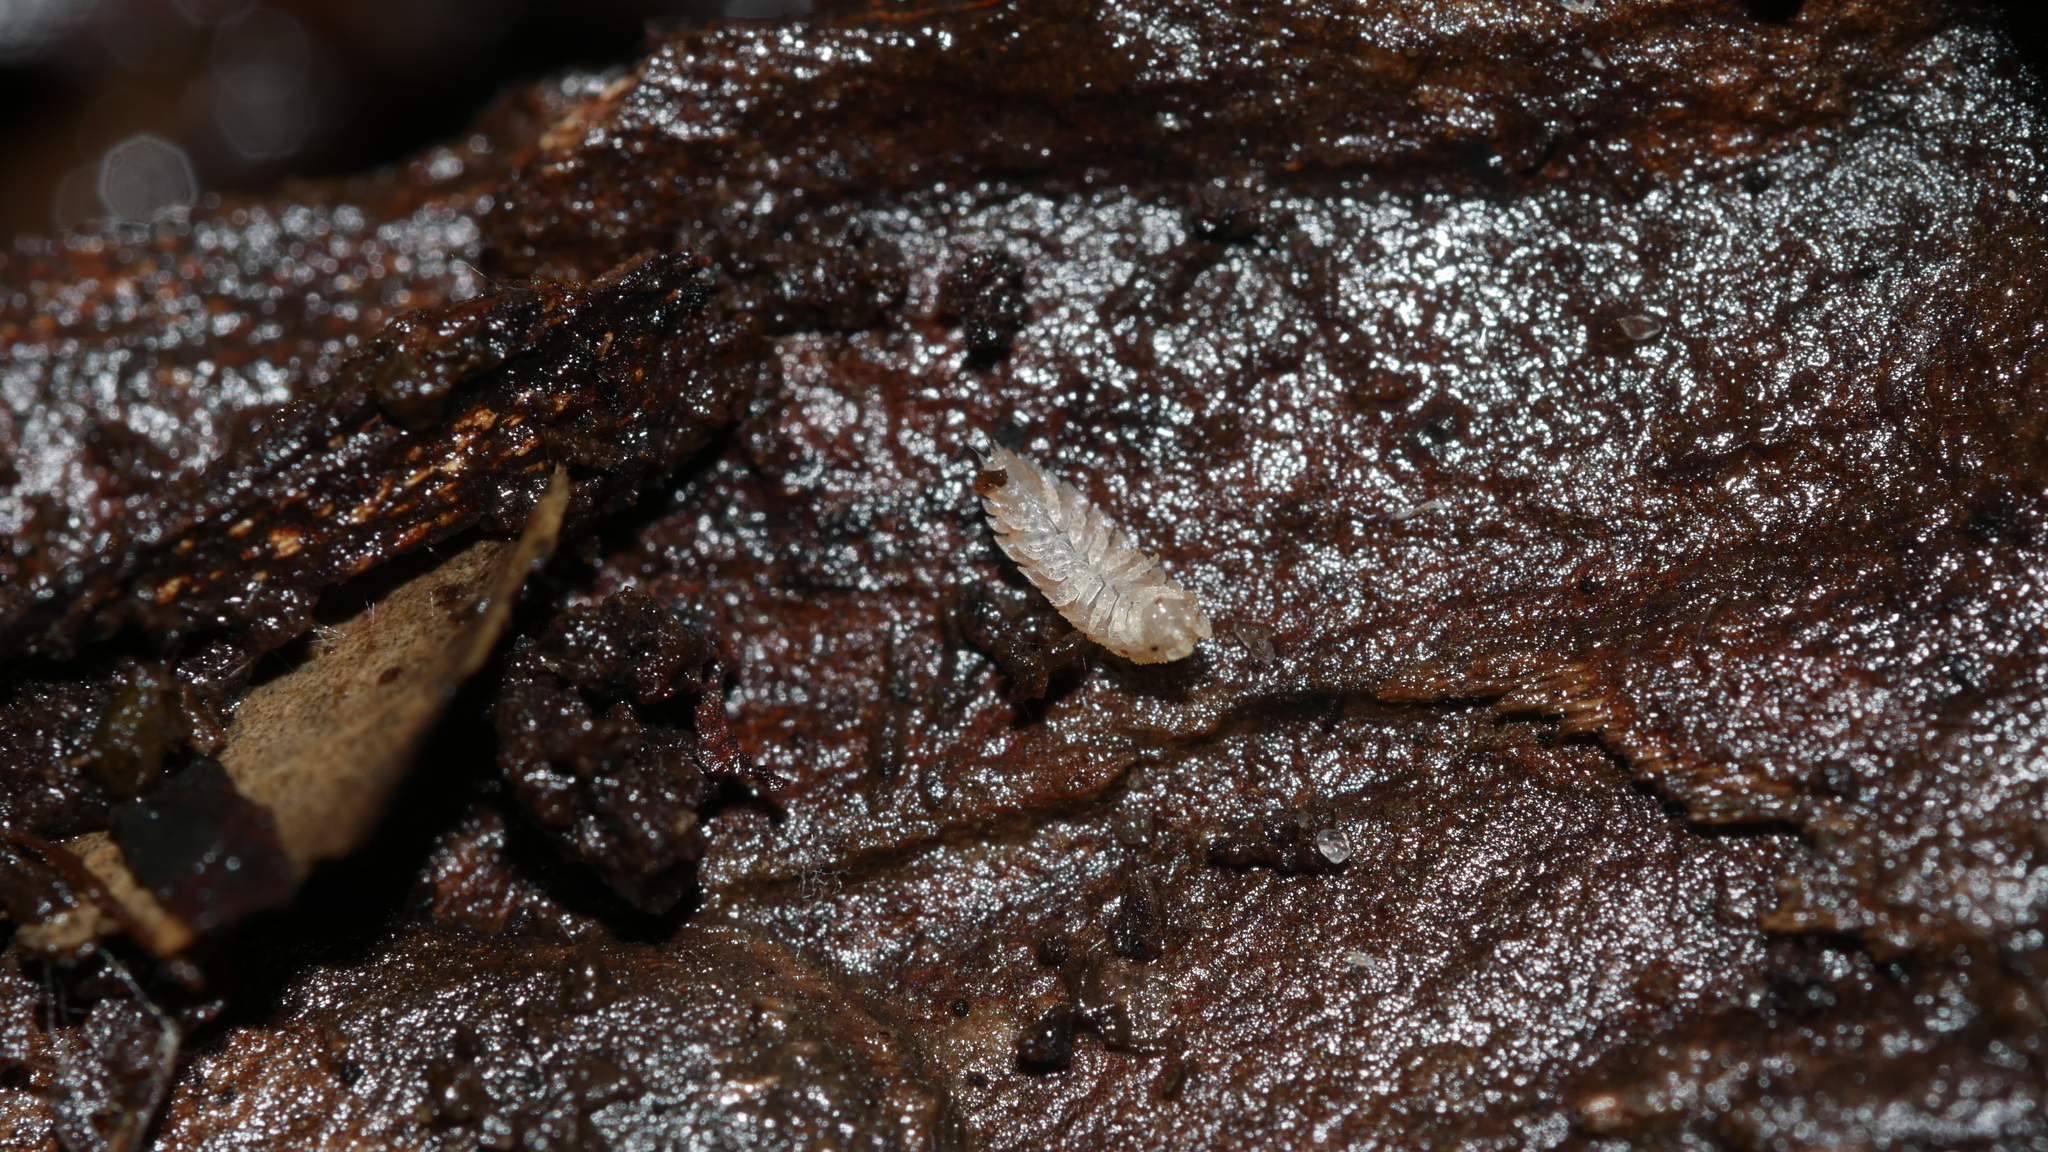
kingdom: Animalia
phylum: Arthropoda
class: Malacostraca
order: Isopoda
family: Trichoniscidae
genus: Haplophthalmus
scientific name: Haplophthalmus danicus
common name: Pillbug
